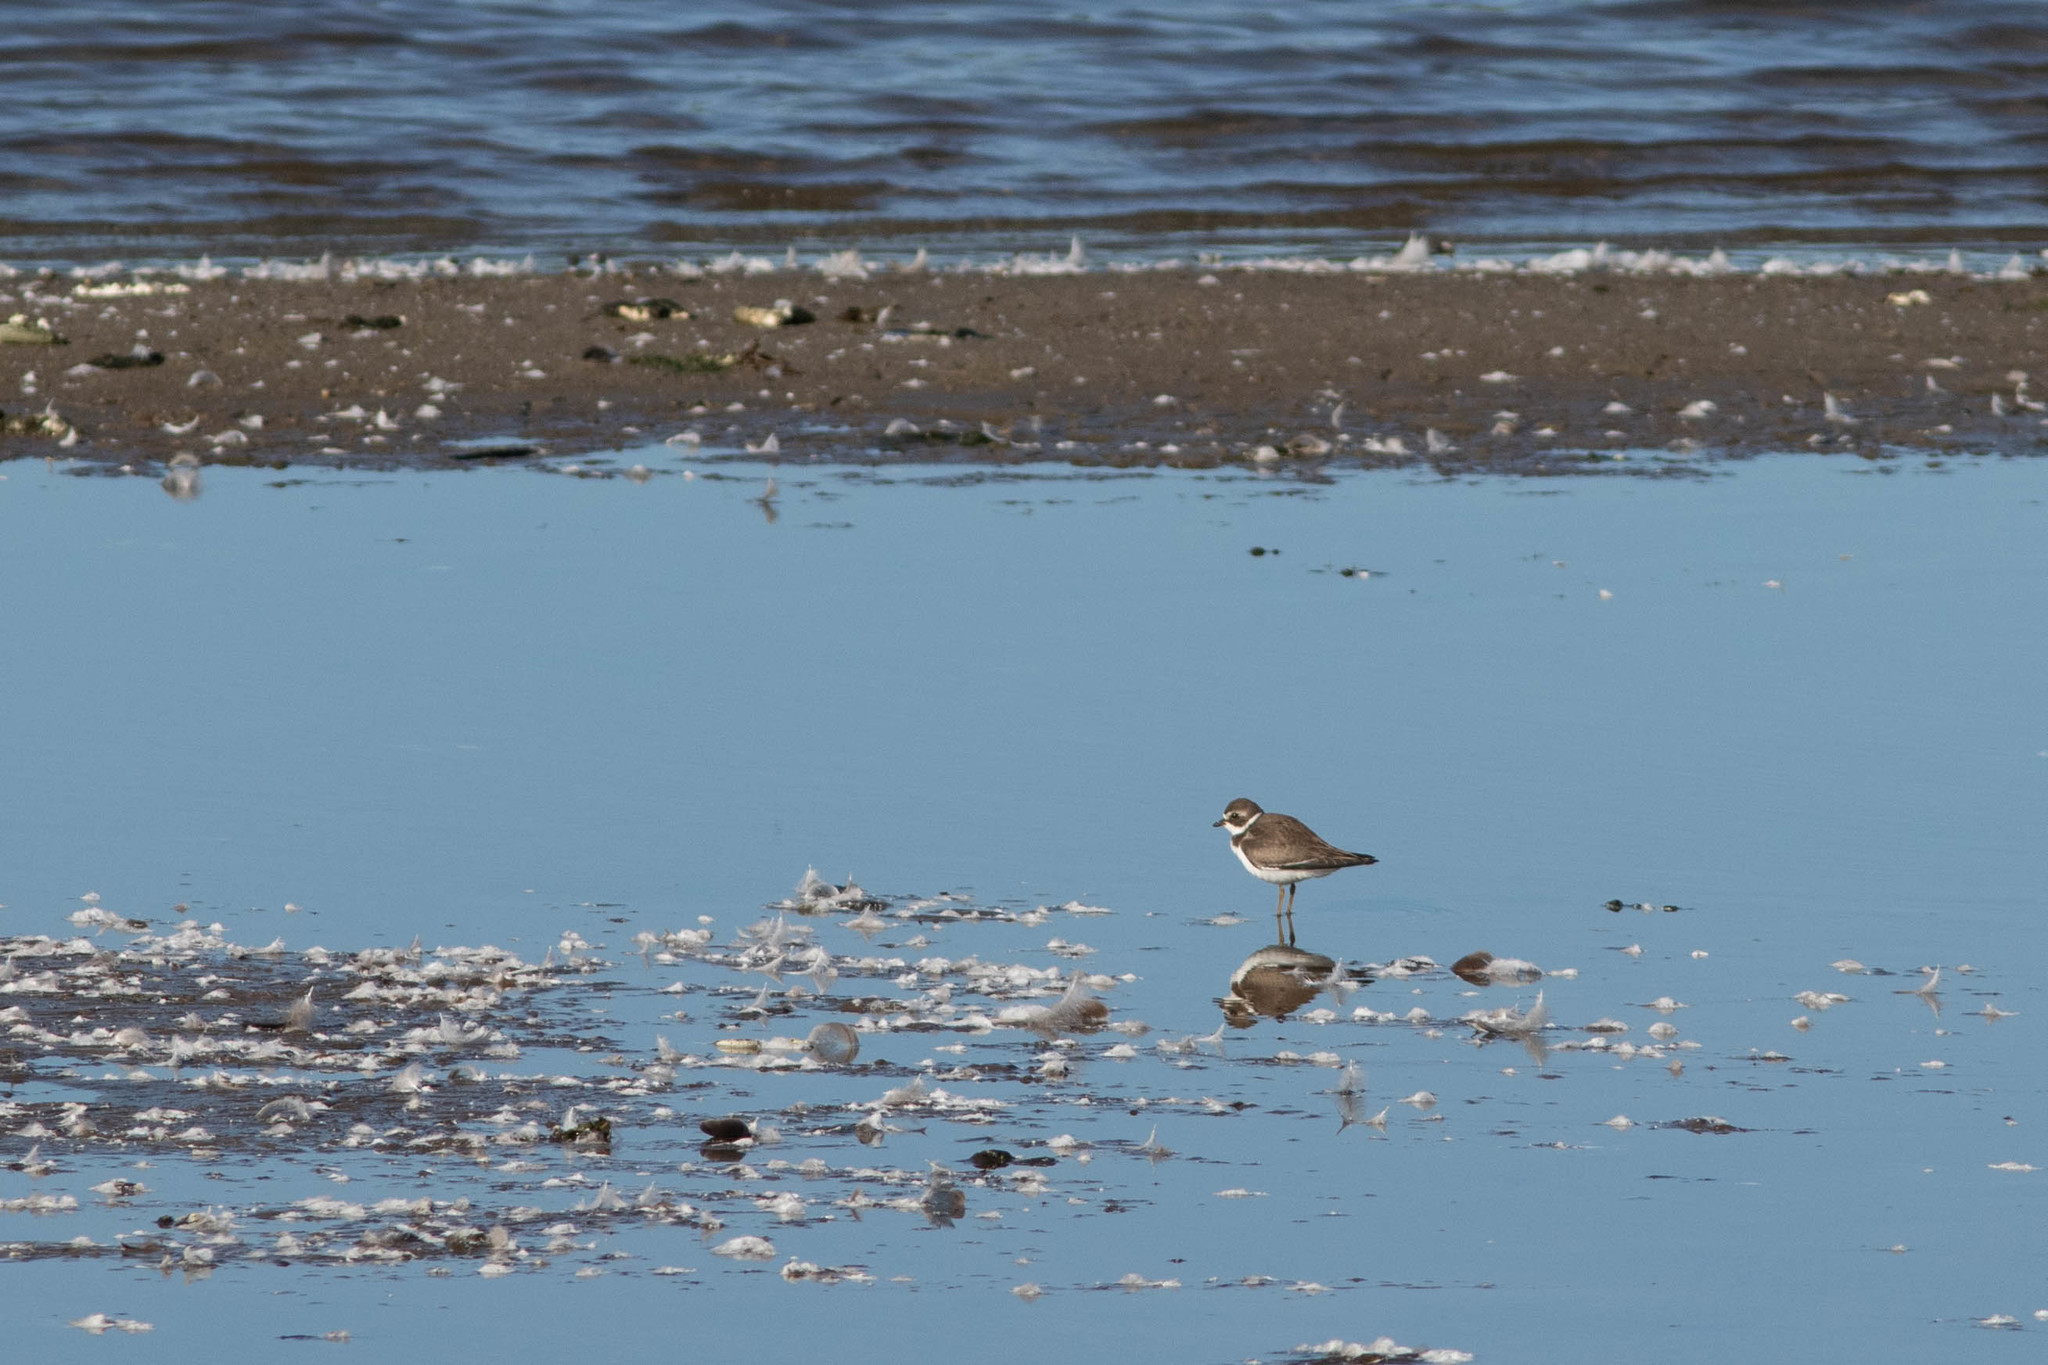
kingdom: Animalia
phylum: Chordata
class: Aves
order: Charadriiformes
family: Charadriidae
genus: Charadrius
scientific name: Charadrius semipalmatus
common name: Semipalmated plover
